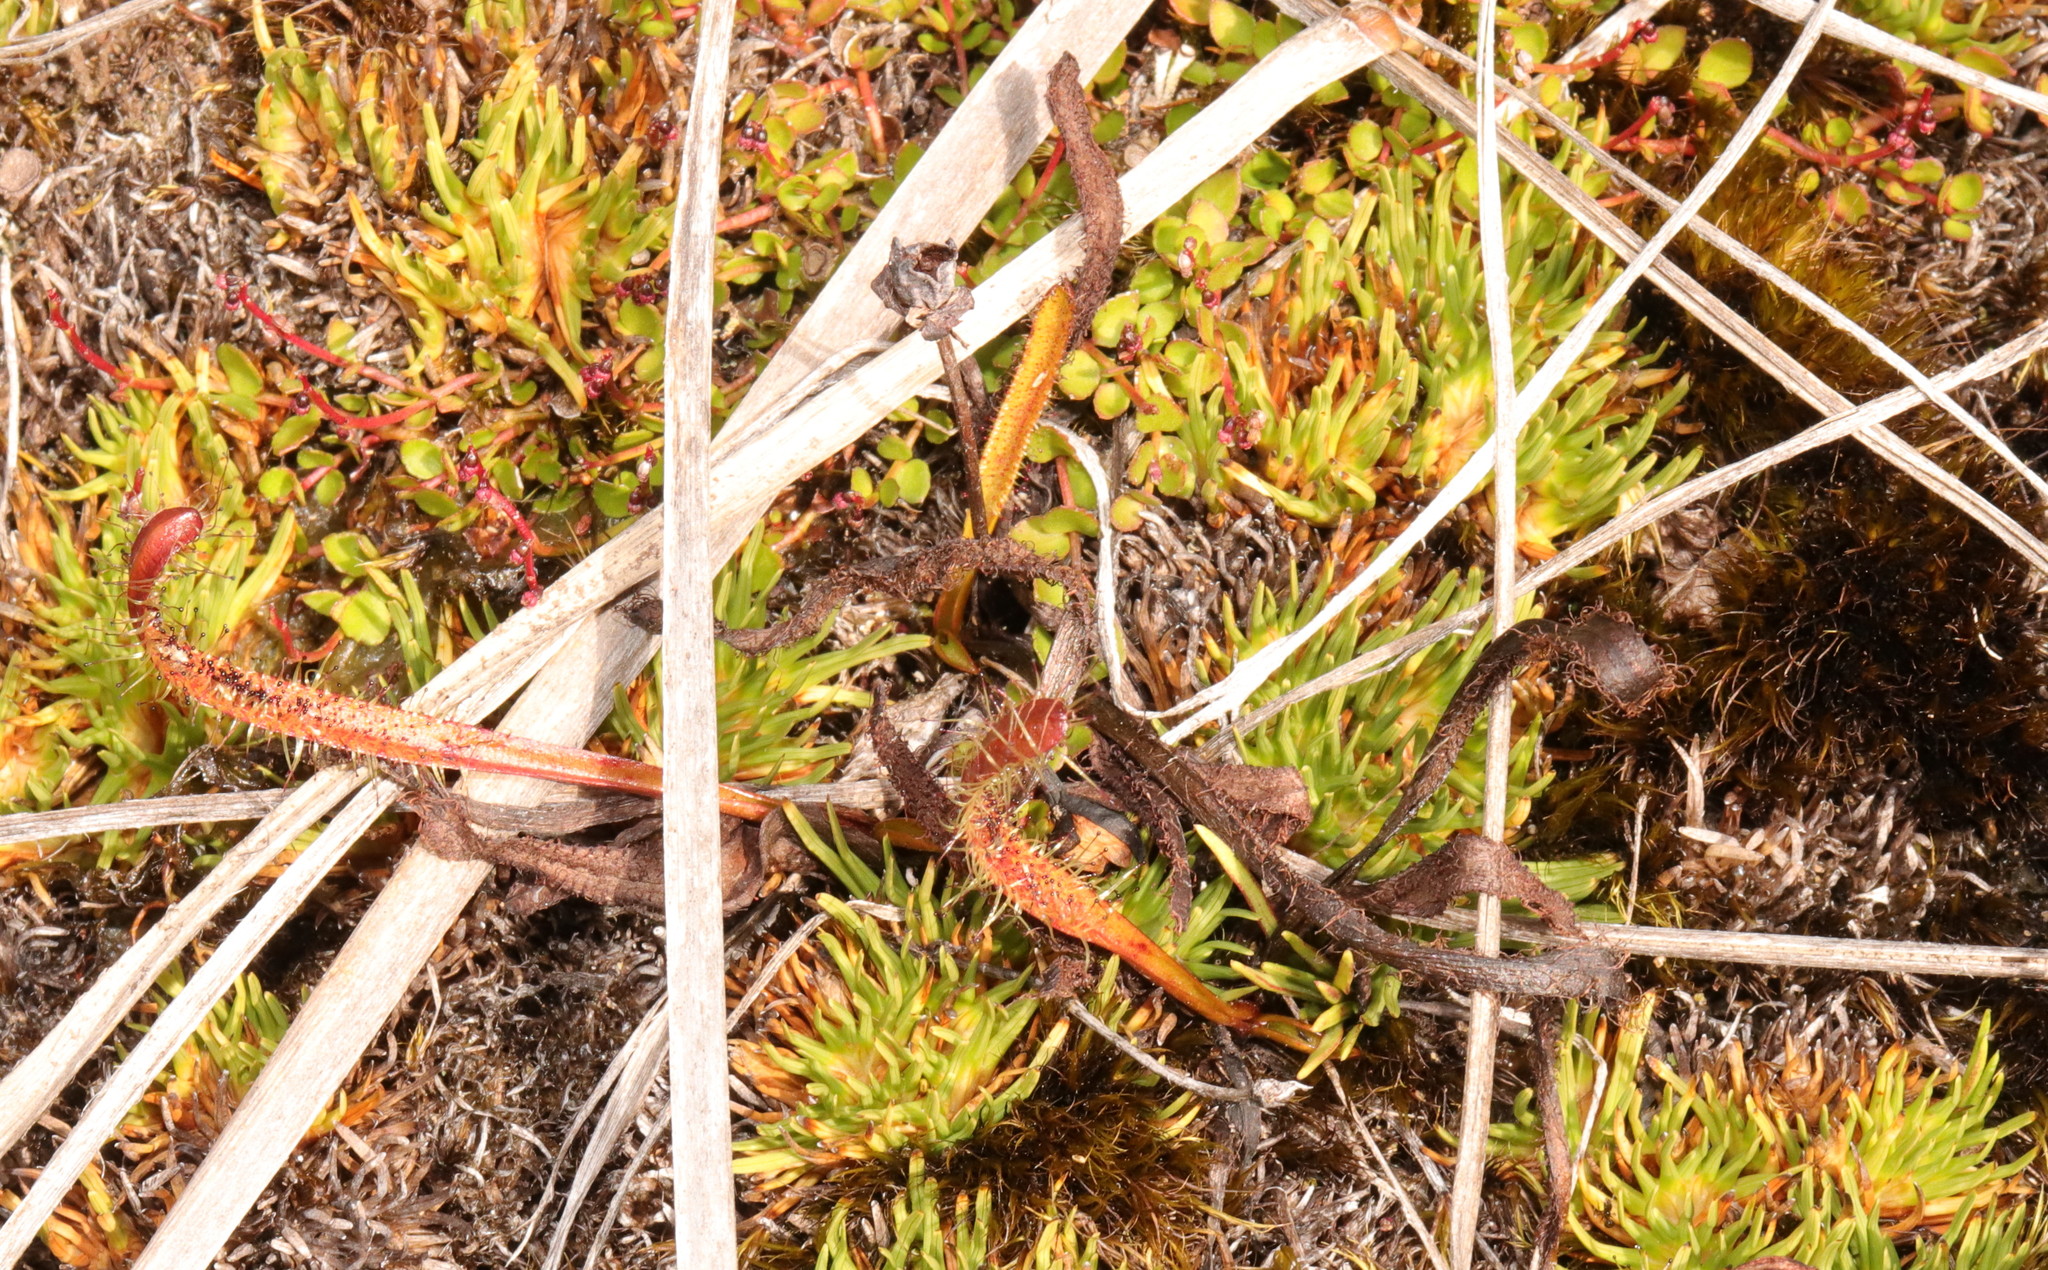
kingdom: Plantae
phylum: Tracheophyta
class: Magnoliopsida
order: Caryophyllales
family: Droseraceae
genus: Drosera
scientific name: Drosera arcturi
